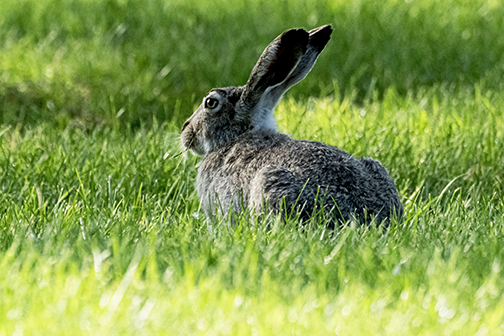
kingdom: Animalia
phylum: Chordata
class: Mammalia
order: Lagomorpha
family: Leporidae
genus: Lepus
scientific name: Lepus townsendii
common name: White-tailed jackrabbit
